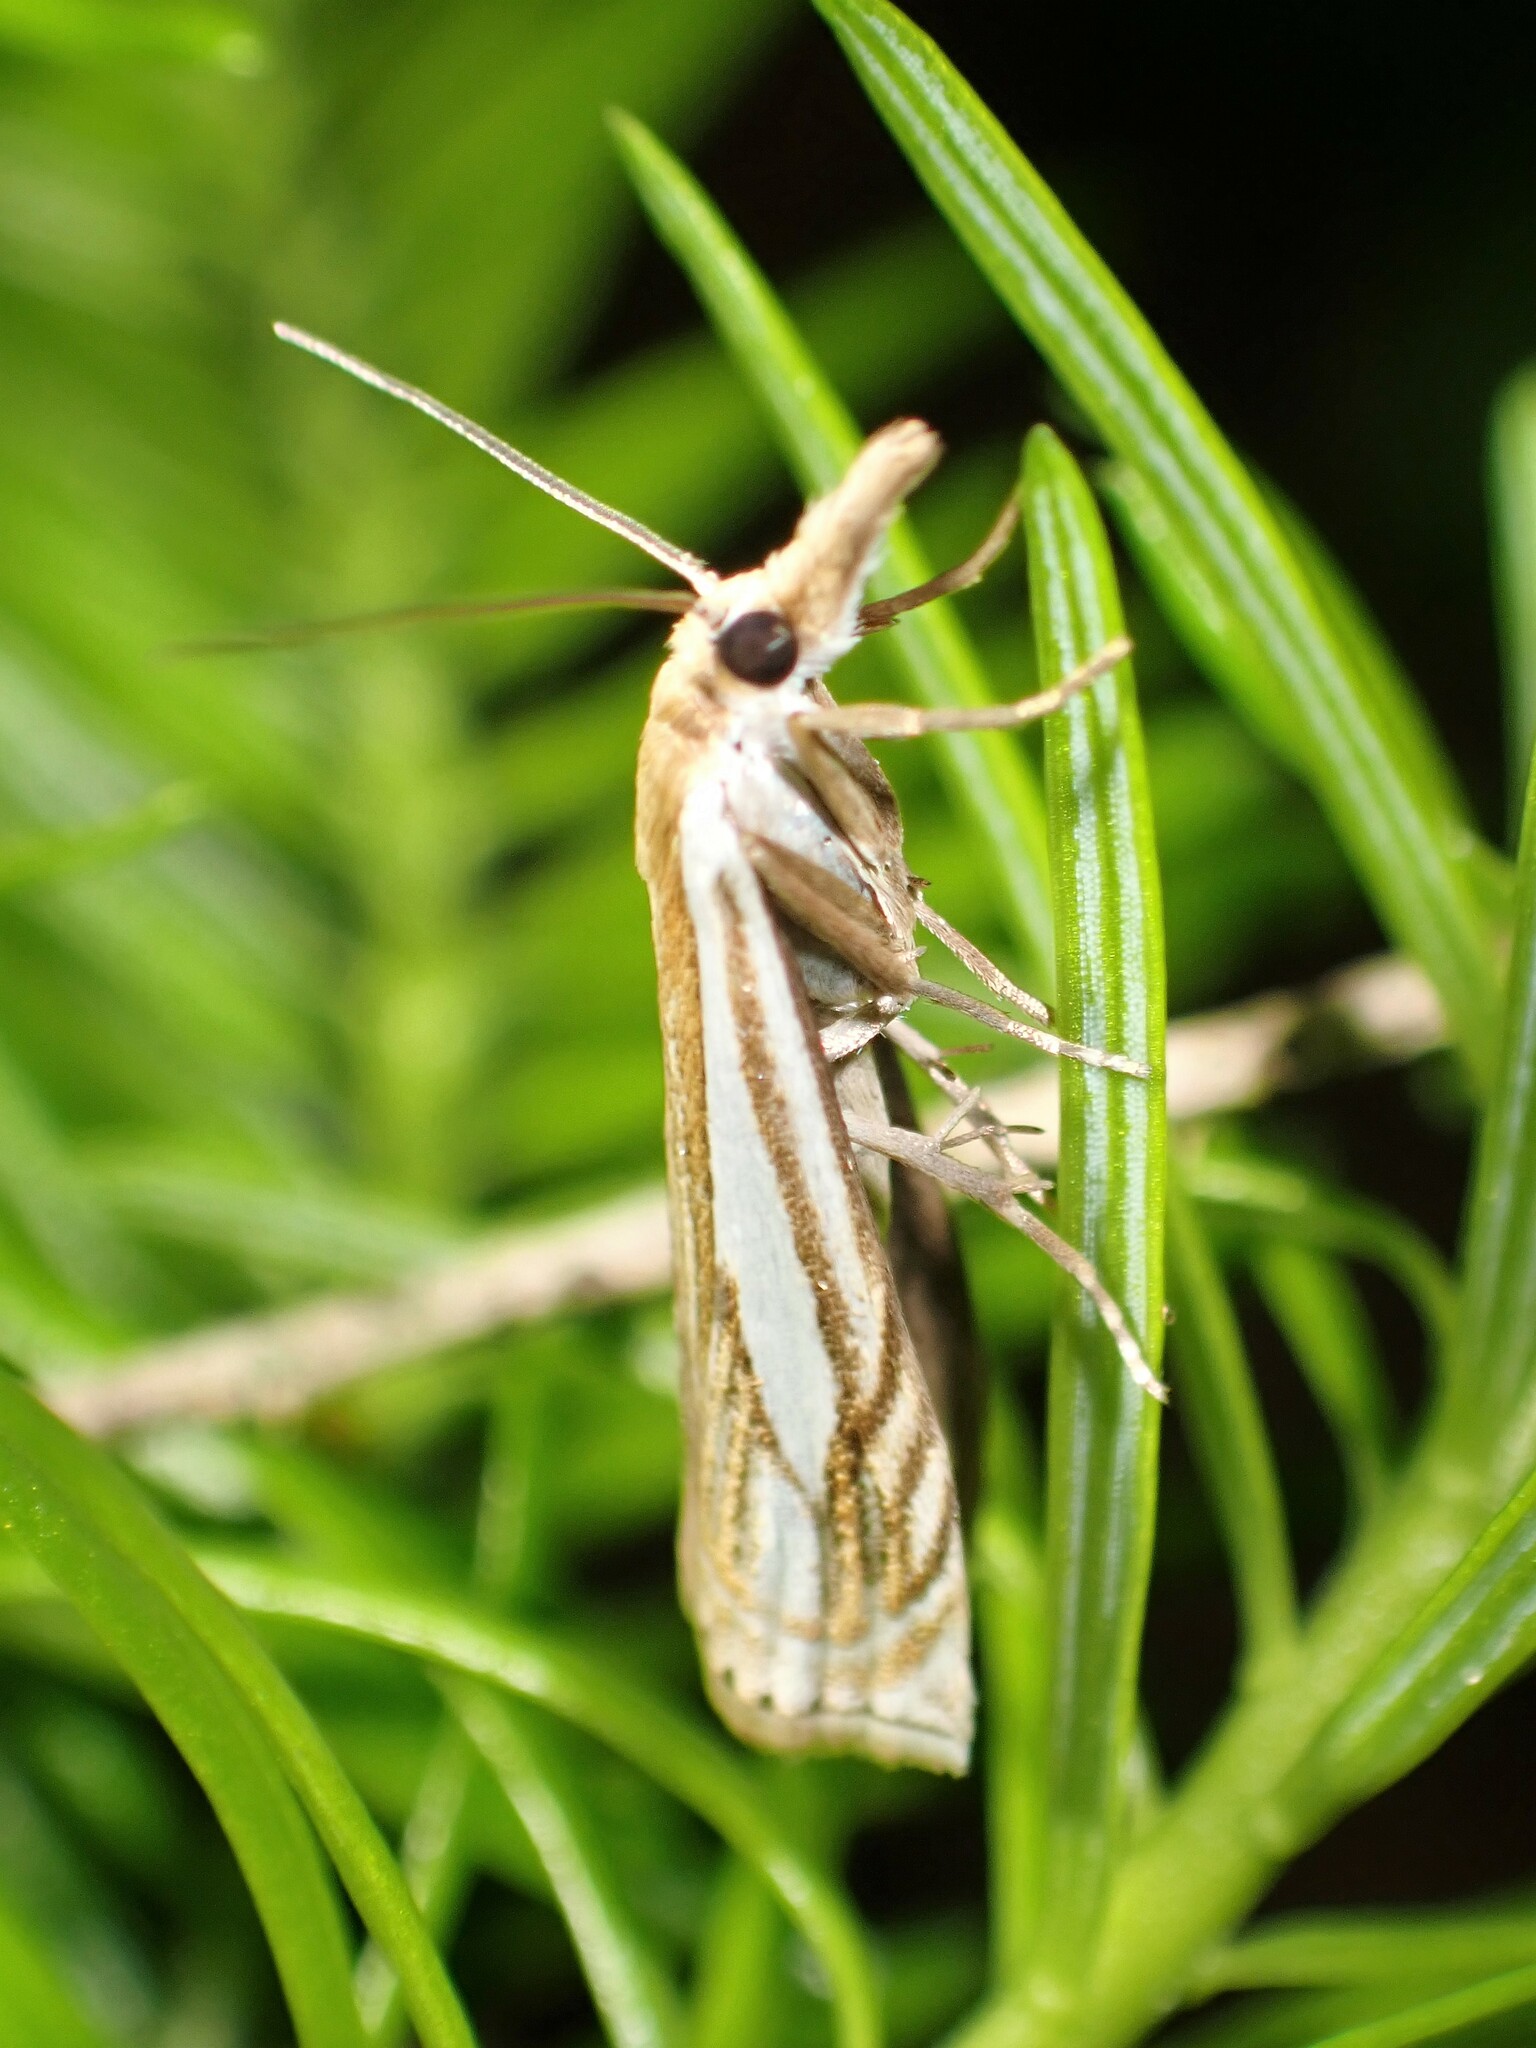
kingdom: Animalia
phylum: Arthropoda
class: Insecta
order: Lepidoptera
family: Crambidae
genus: Crambus
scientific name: Crambus saltuellus
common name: Pasture grass-veneer
